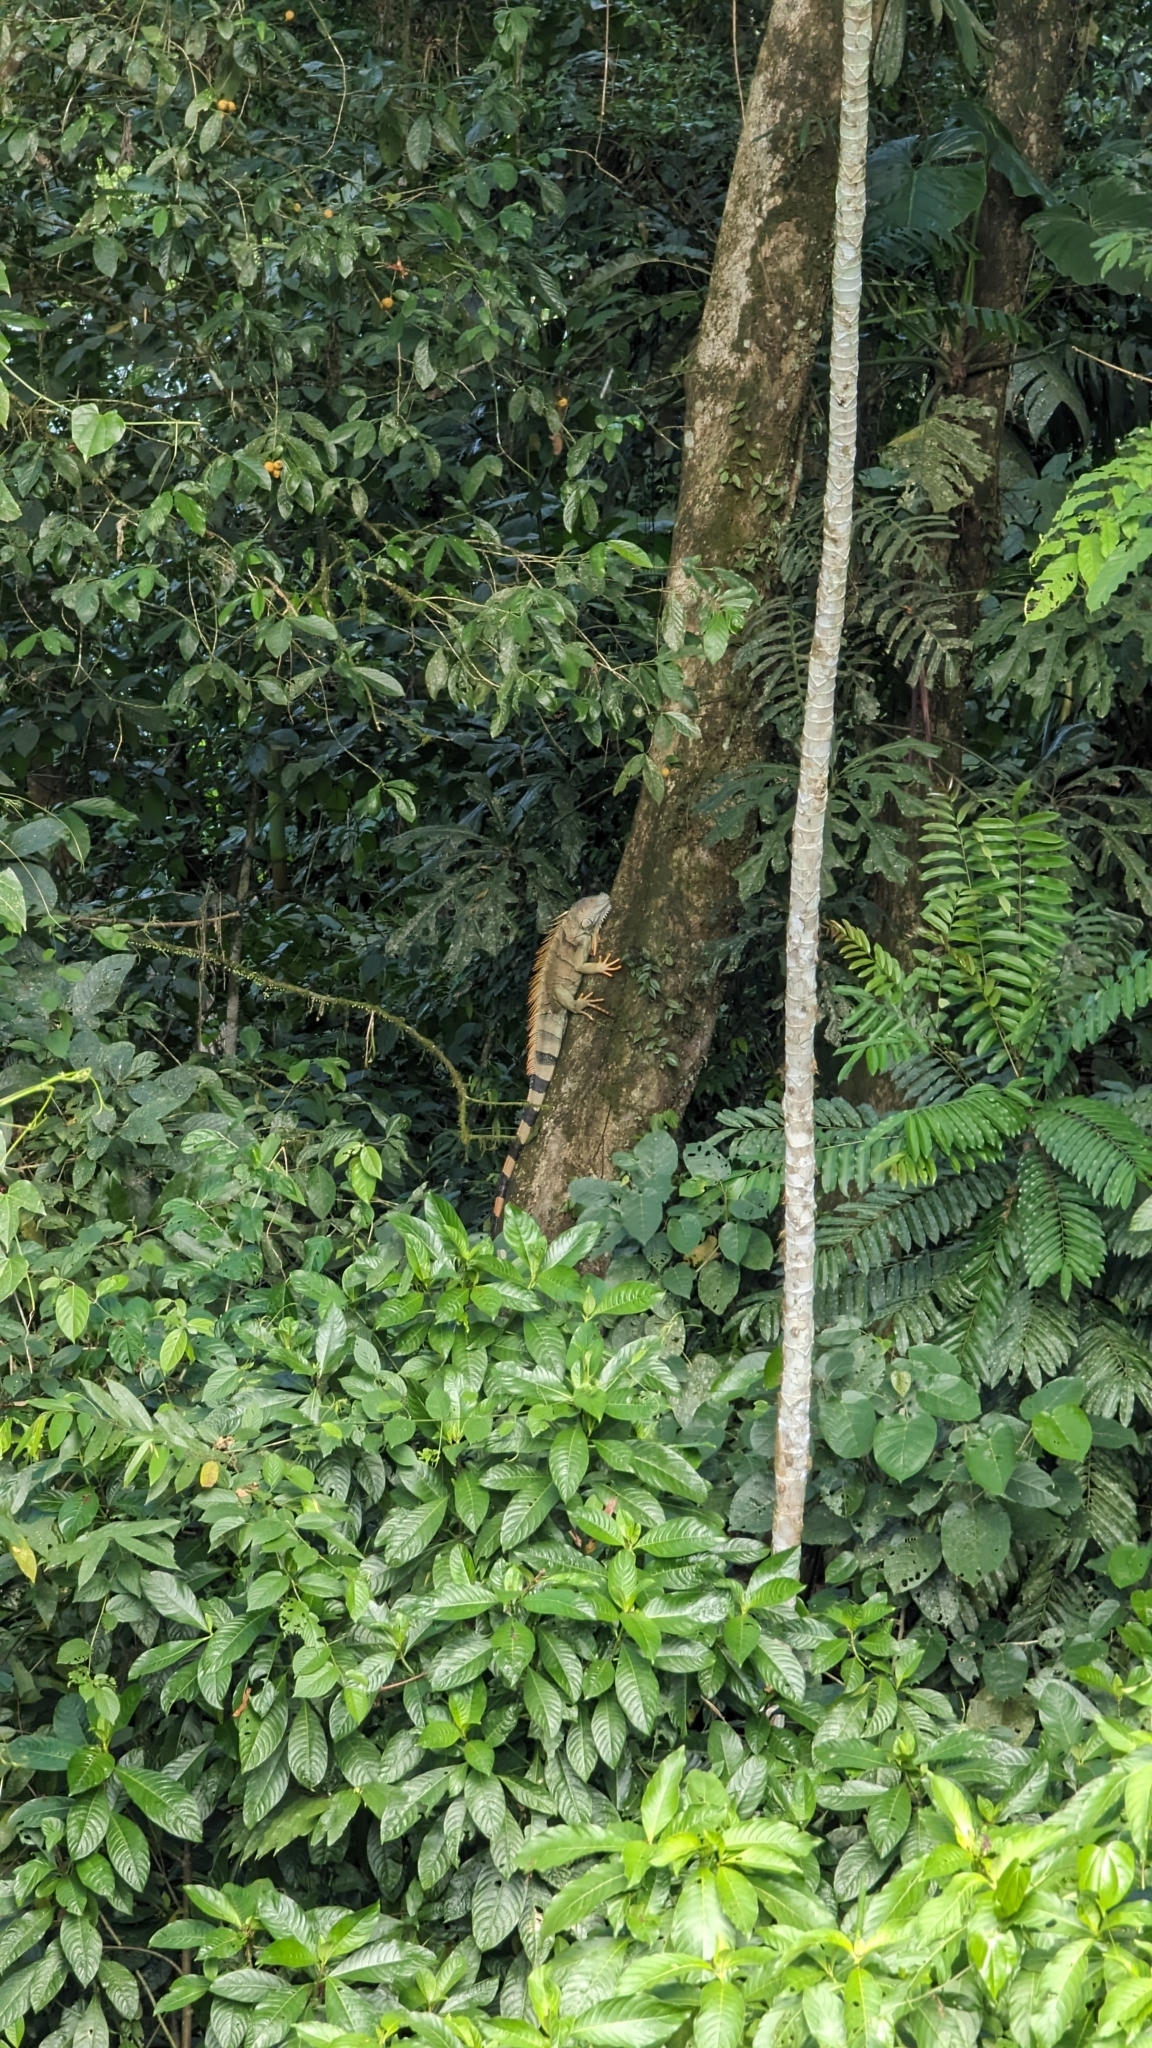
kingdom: Animalia
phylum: Chordata
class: Squamata
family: Iguanidae
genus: Iguana
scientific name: Iguana iguana
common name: Green iguana
